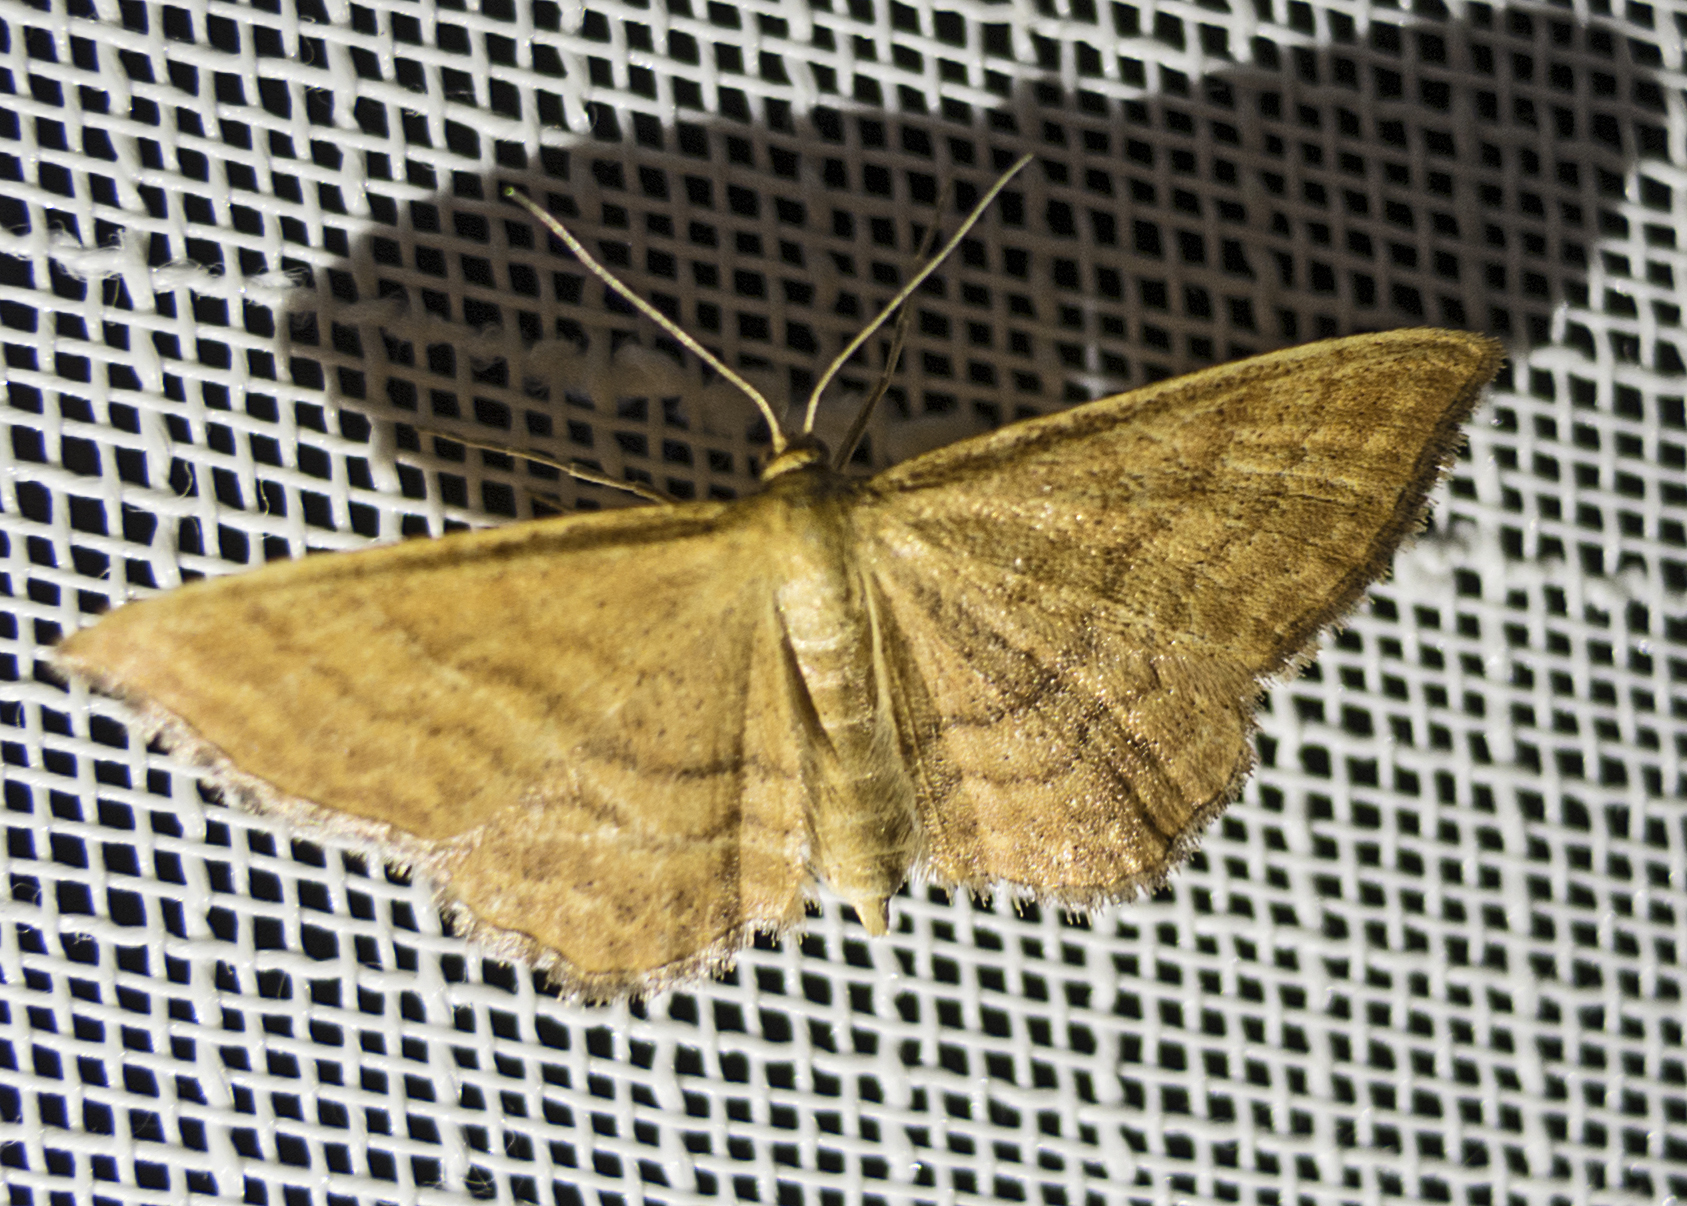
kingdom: Animalia
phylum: Arthropoda
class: Insecta
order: Lepidoptera
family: Geometridae
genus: Idaea
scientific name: Idaea ochrata
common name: Bright wave
